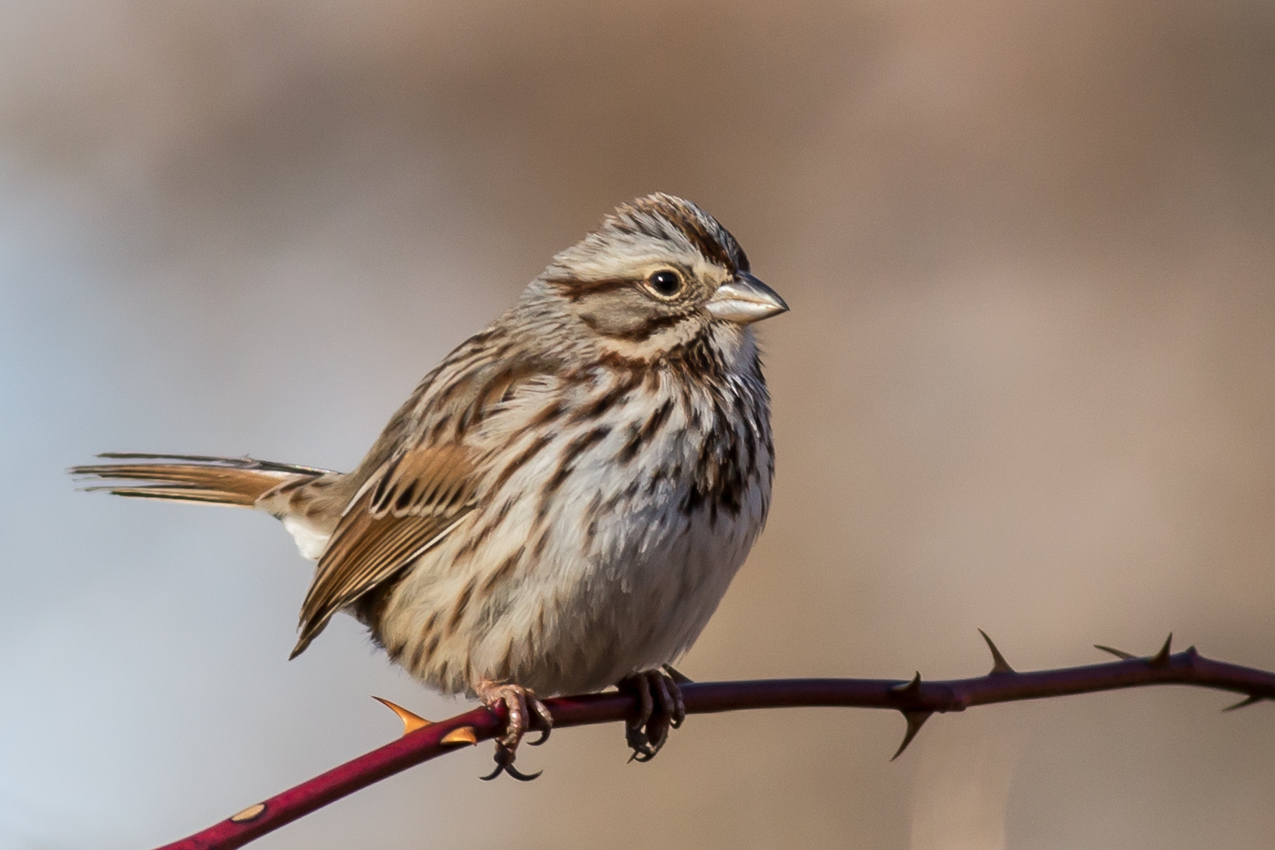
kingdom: Animalia
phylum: Chordata
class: Aves
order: Passeriformes
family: Passerellidae
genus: Melospiza
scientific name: Melospiza melodia
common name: Song sparrow
